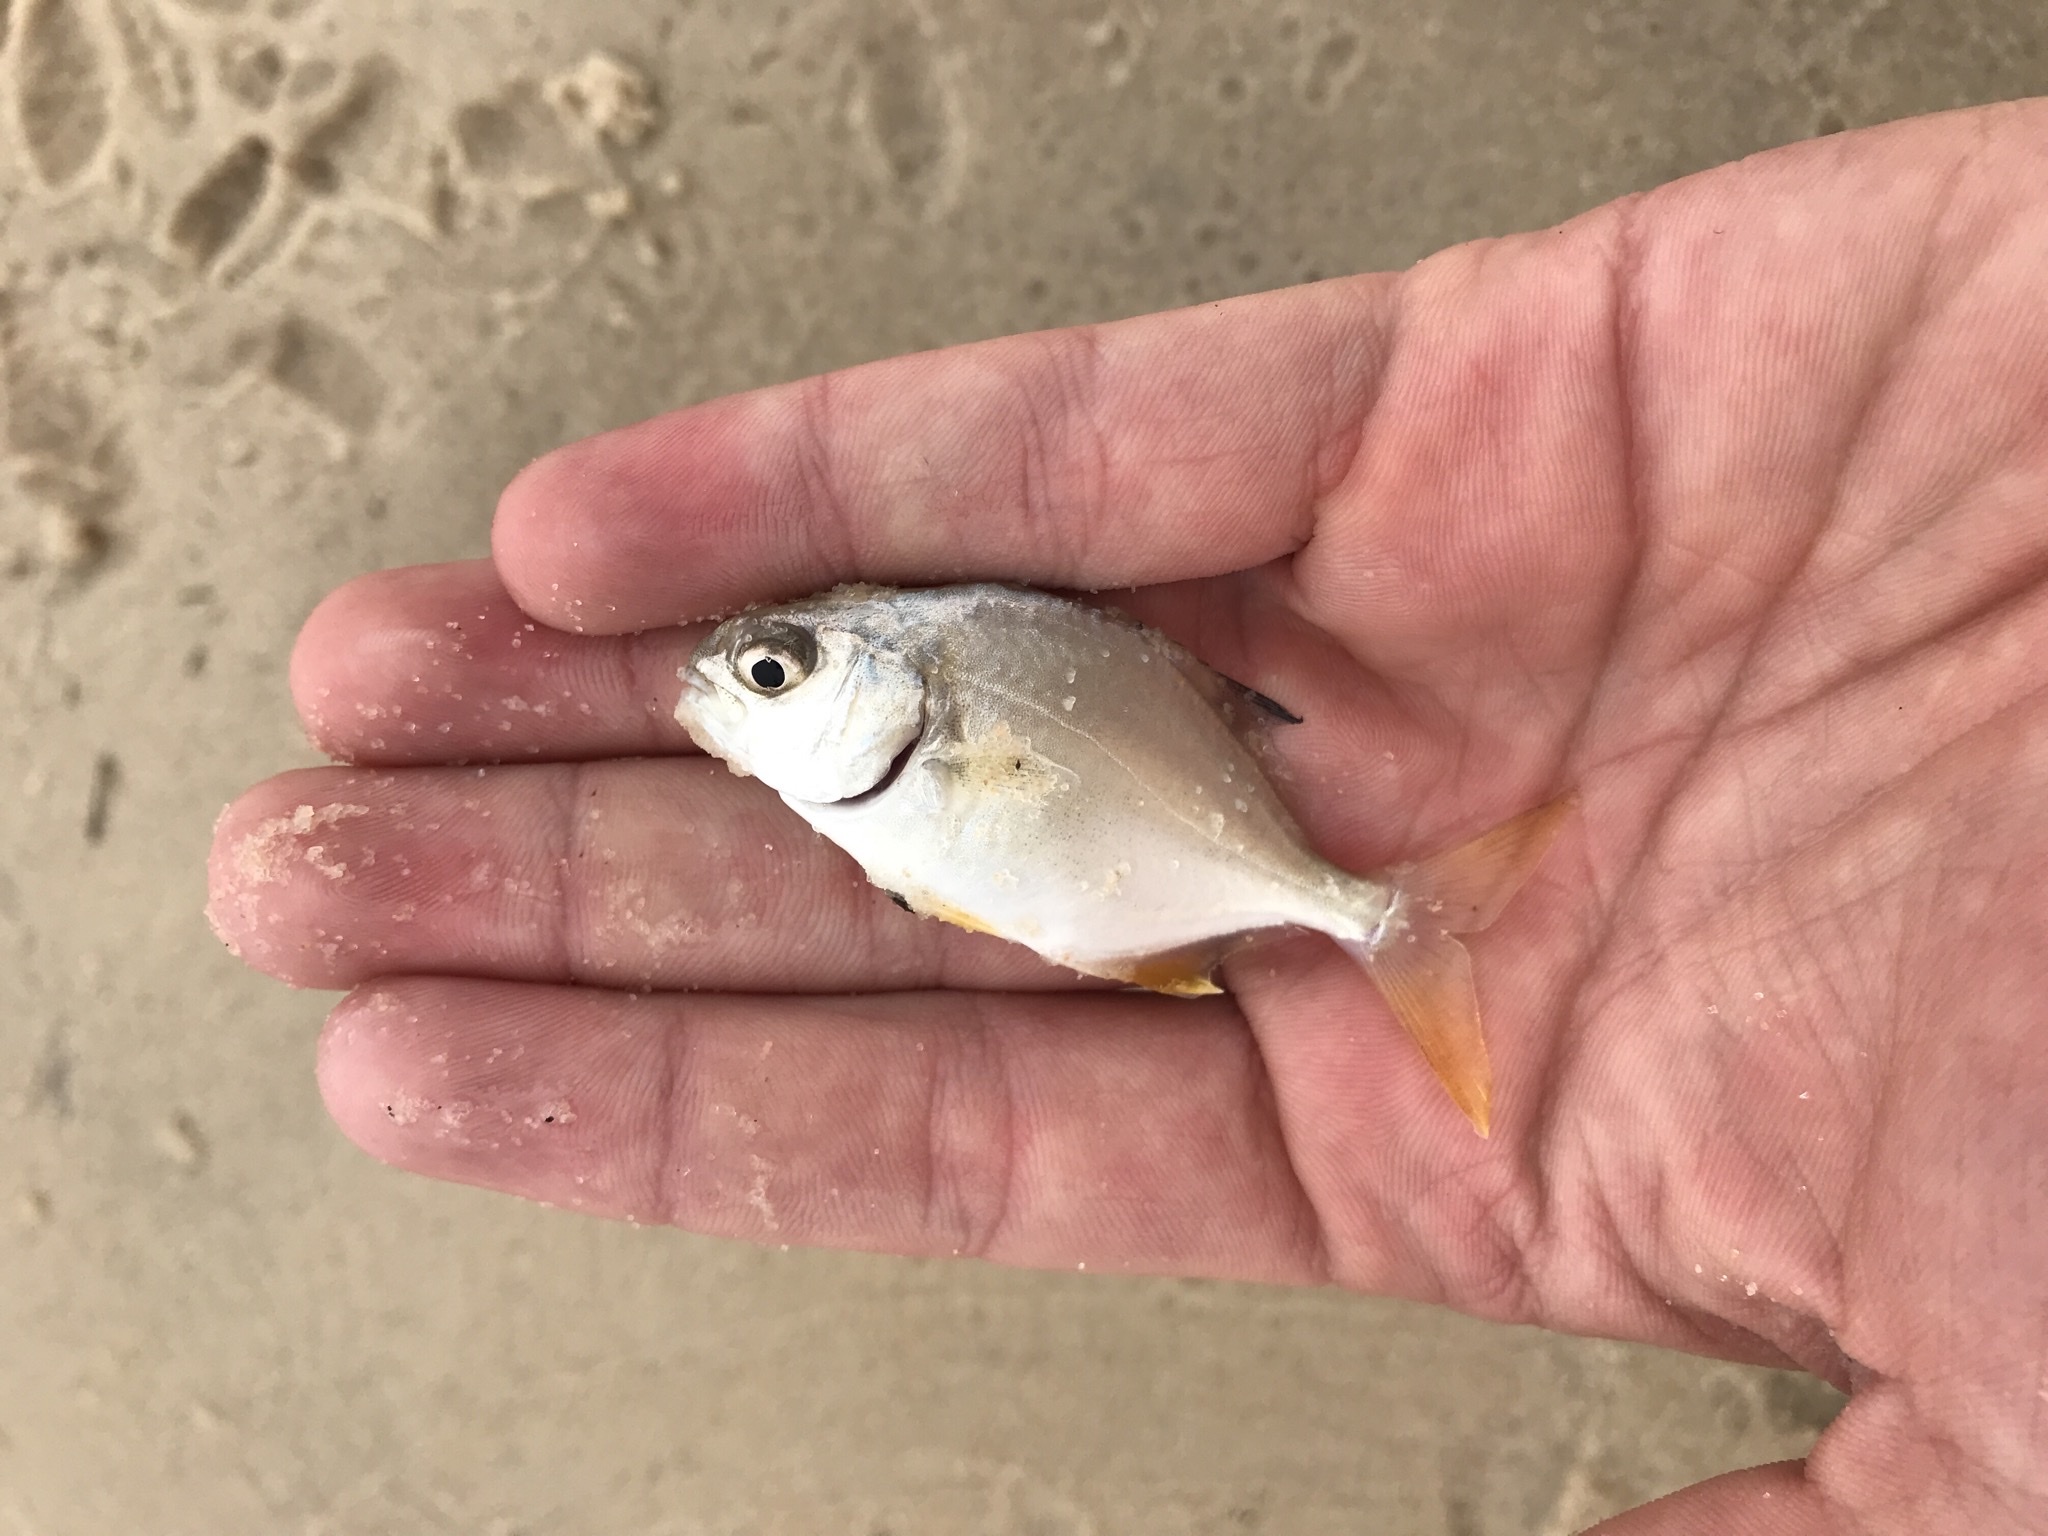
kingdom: Animalia
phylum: Chordata
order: Perciformes
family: Carangidae
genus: Trachinotus
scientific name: Trachinotus carolinus
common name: Florida pompano
